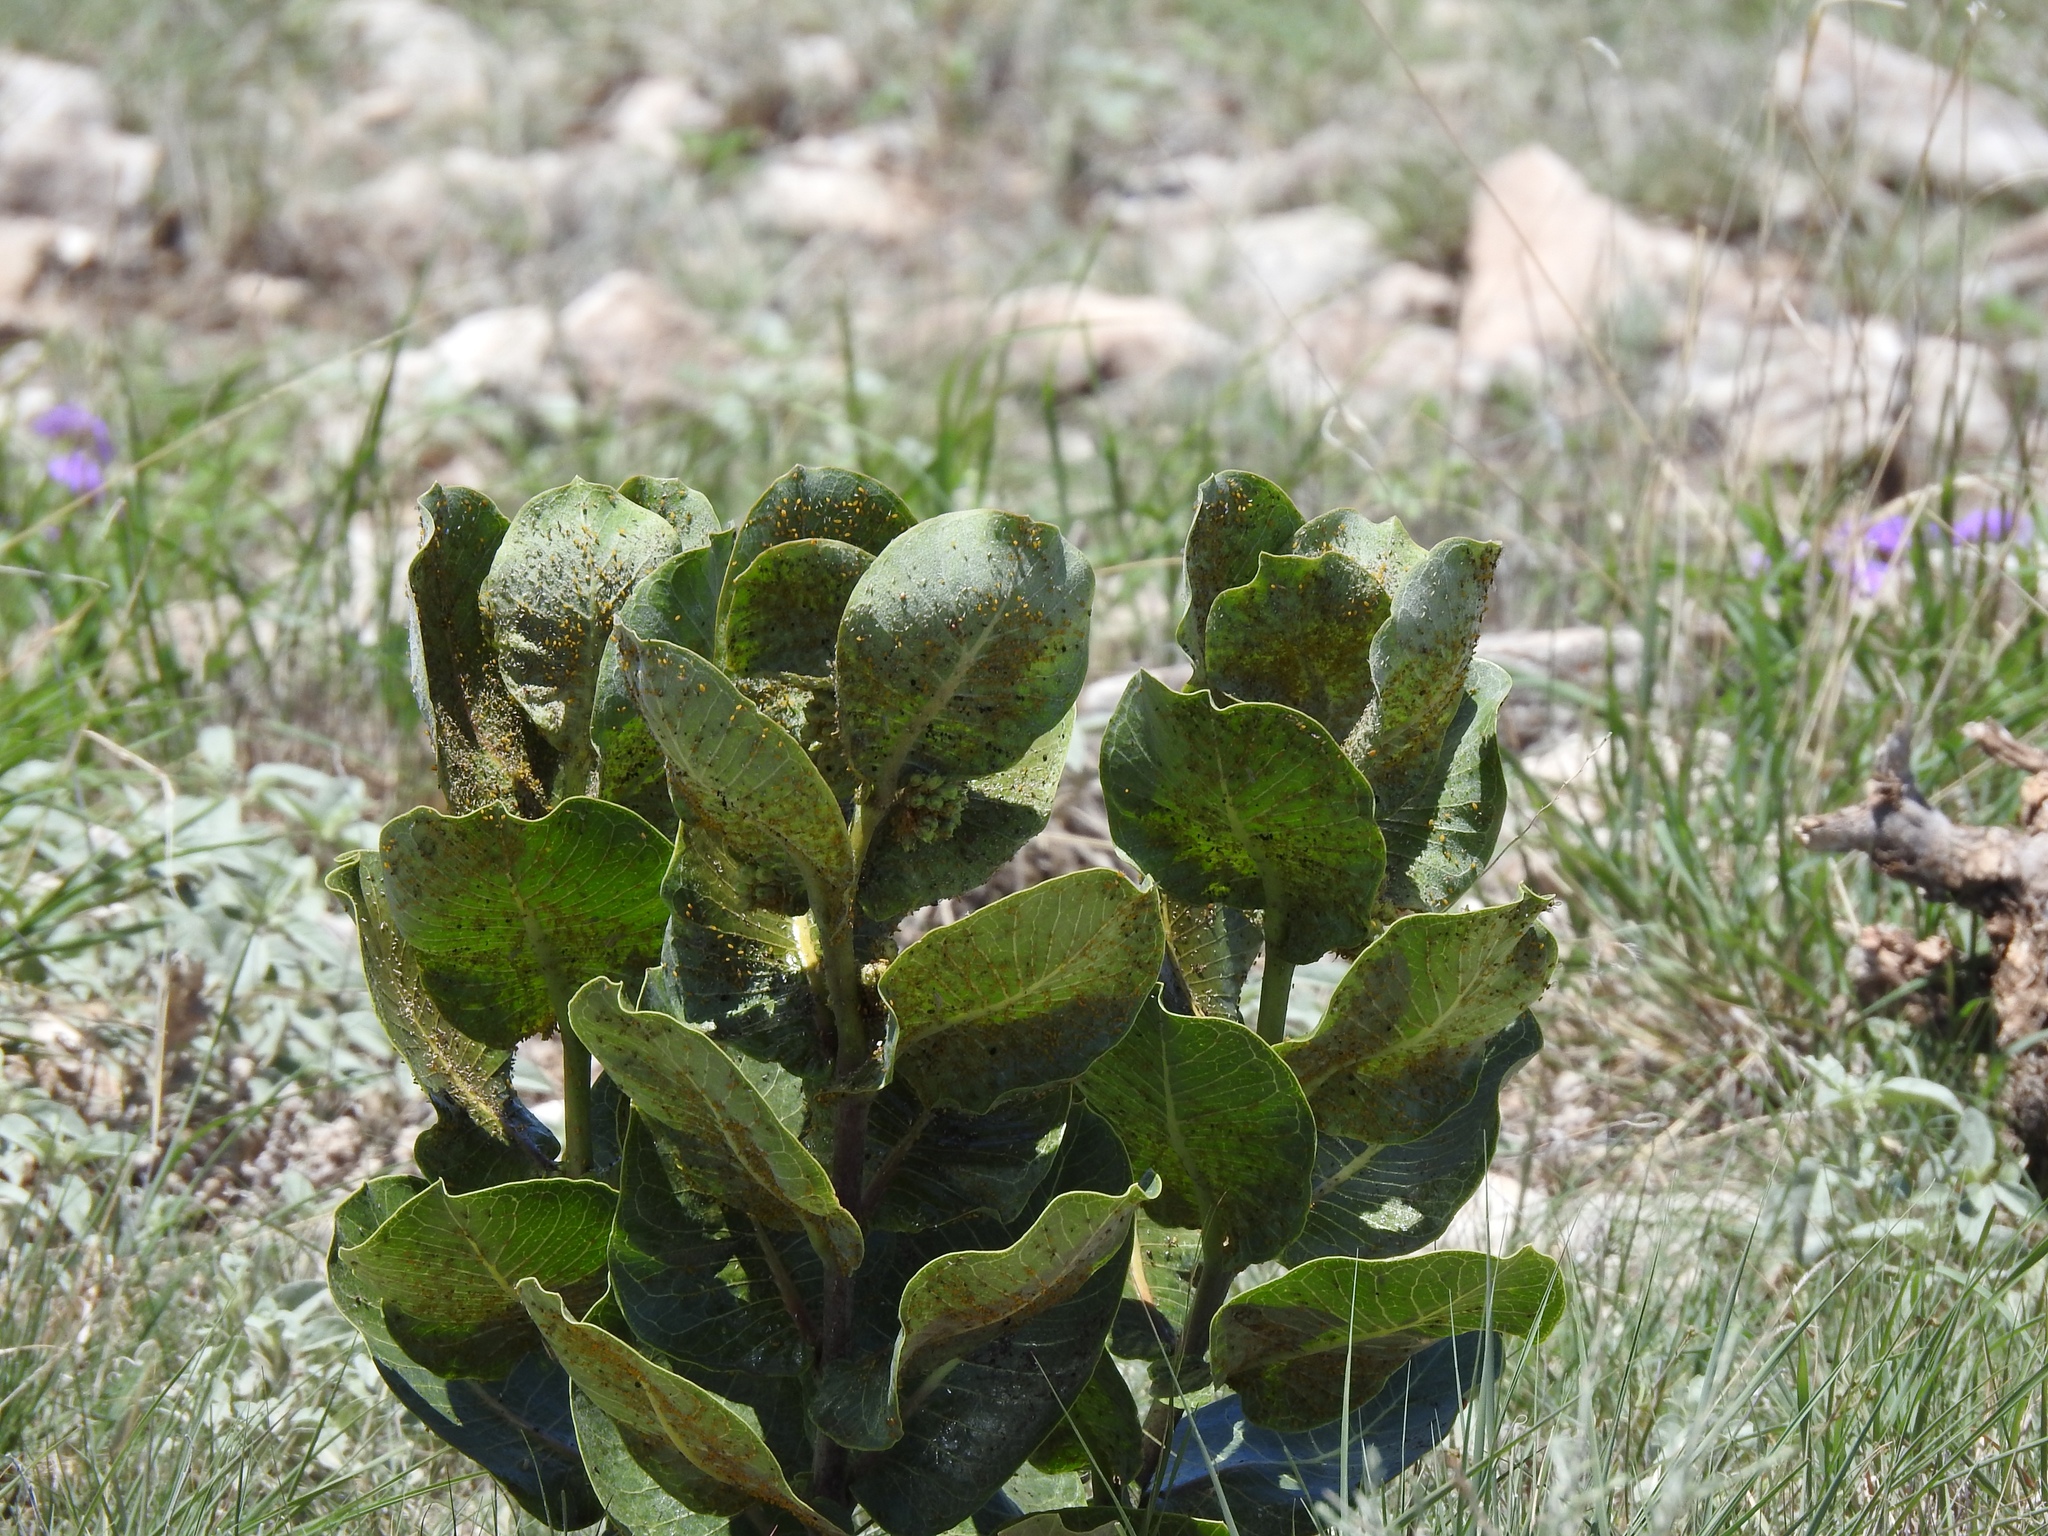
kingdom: Plantae
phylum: Tracheophyta
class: Magnoliopsida
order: Gentianales
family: Apocynaceae
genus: Asclepias
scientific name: Asclepias latifolia
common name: Broadleaf milkweed
